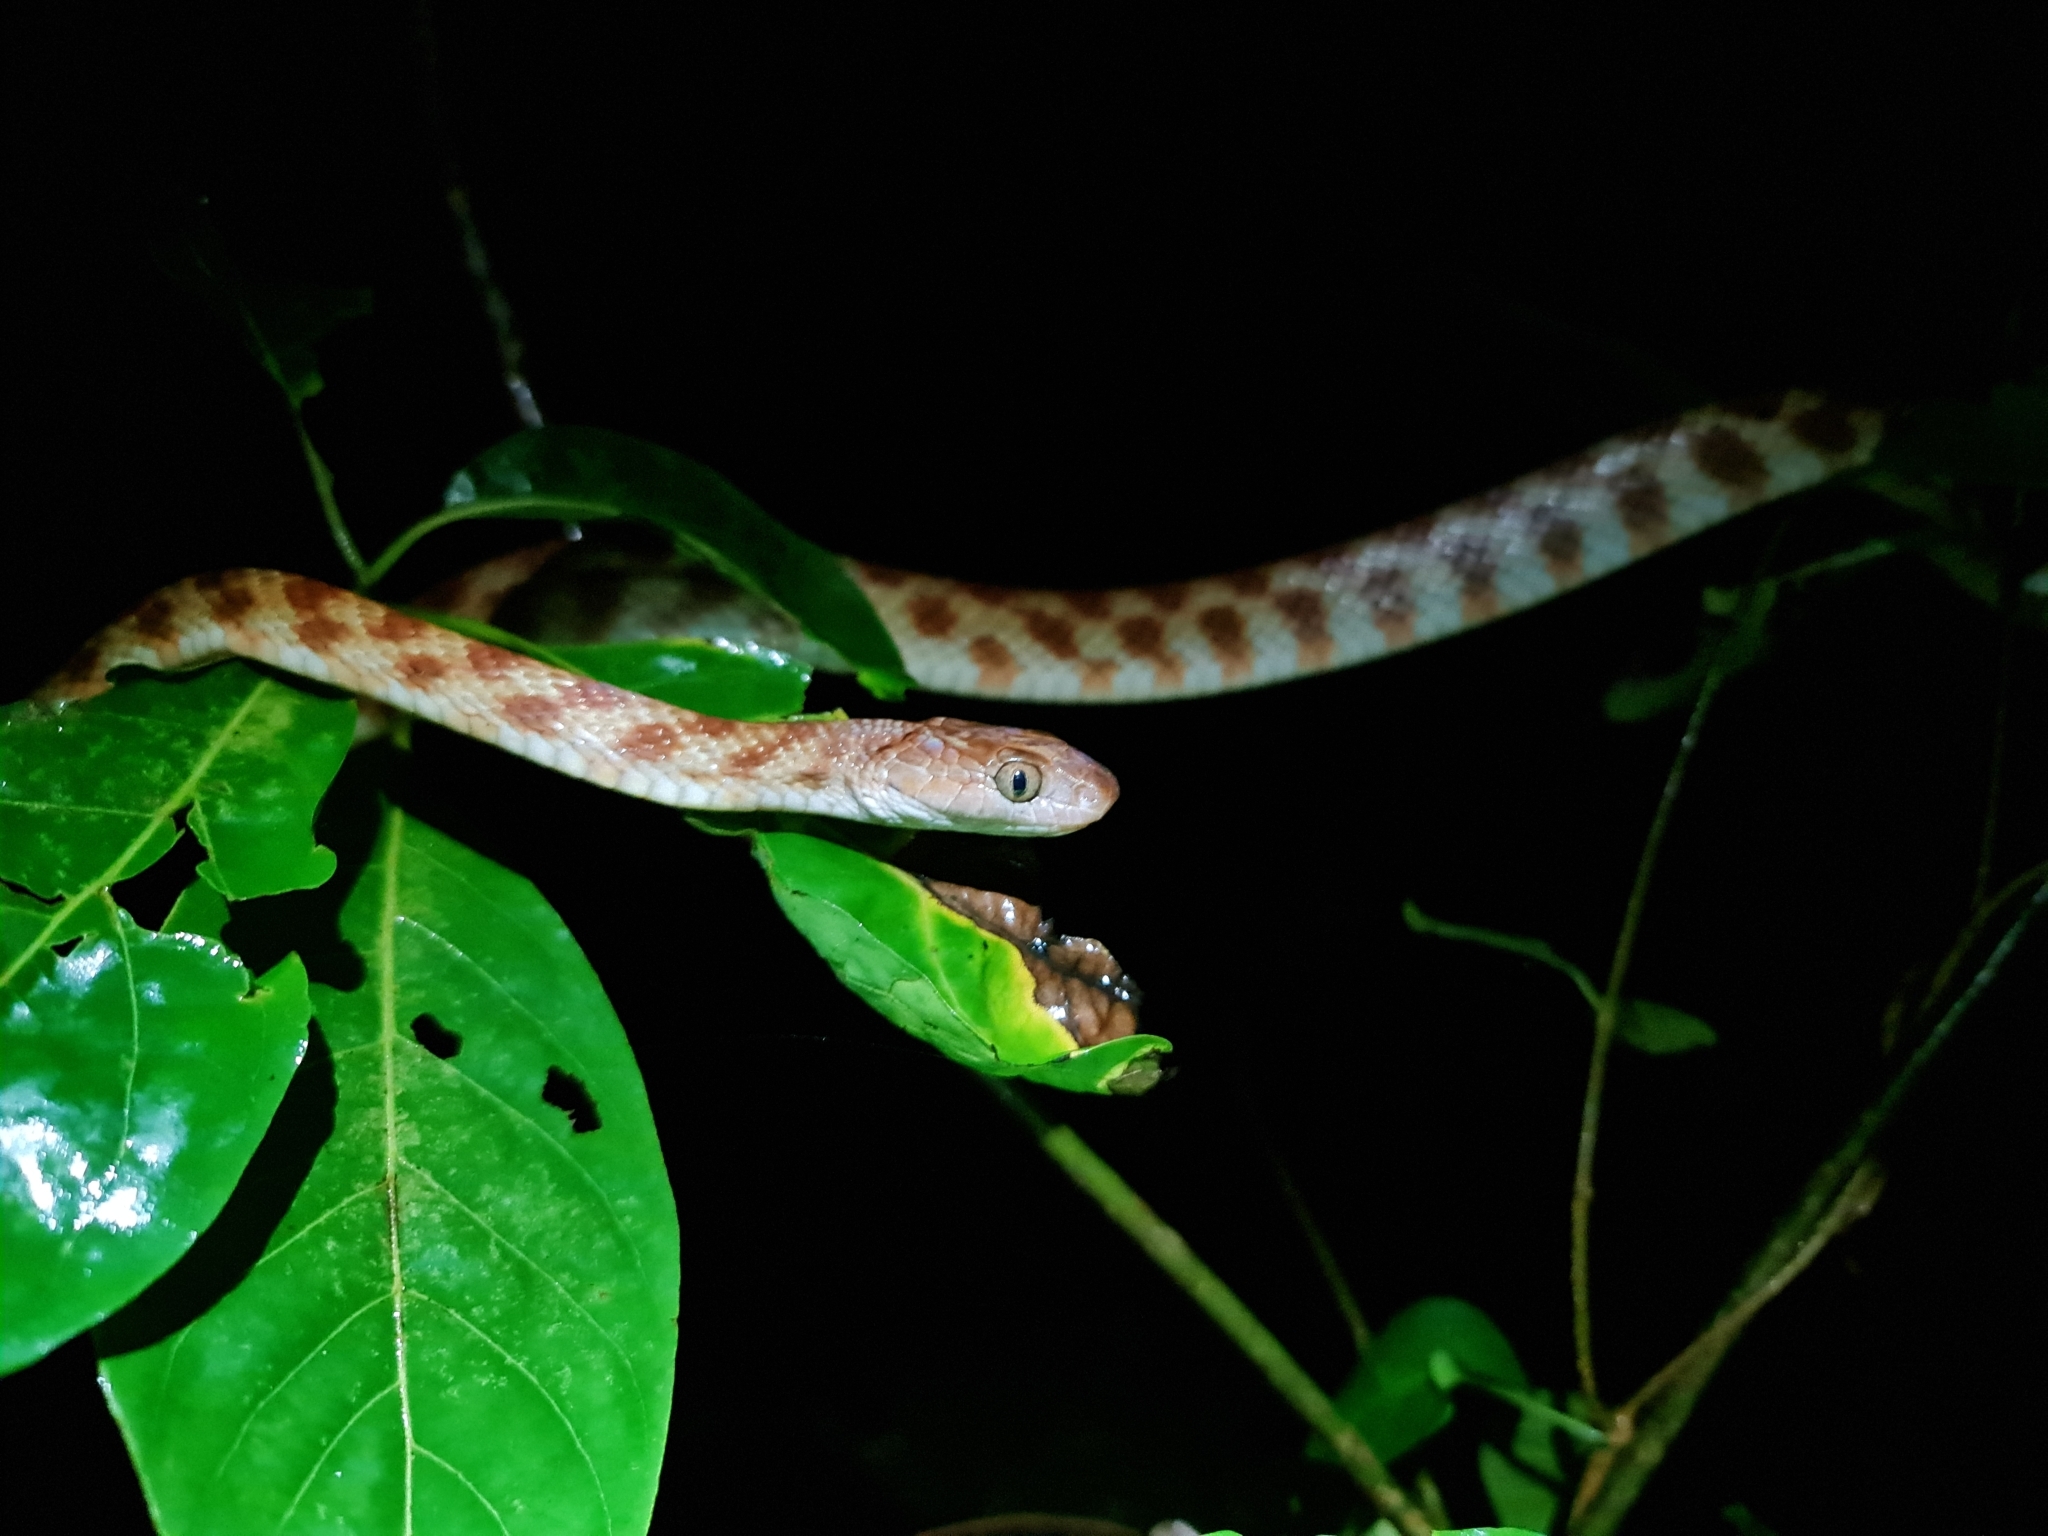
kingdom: Animalia
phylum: Chordata
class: Squamata
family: Colubridae
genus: Boiga
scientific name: Boiga irregularis
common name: Brown tree snake
